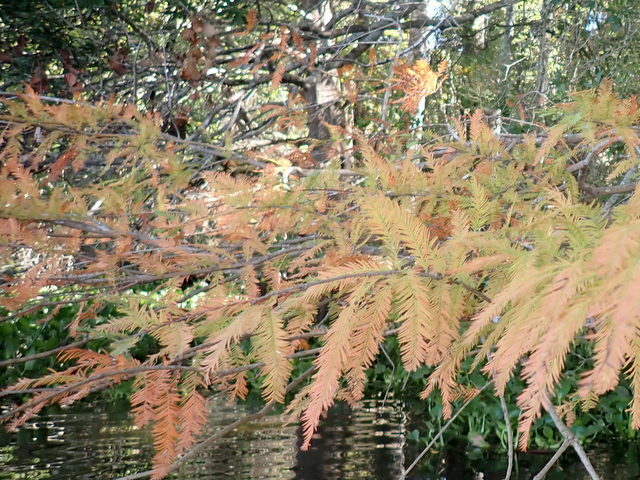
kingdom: Plantae
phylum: Tracheophyta
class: Pinopsida
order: Pinales
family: Cupressaceae
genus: Taxodium
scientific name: Taxodium distichum
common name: Bald cypress
